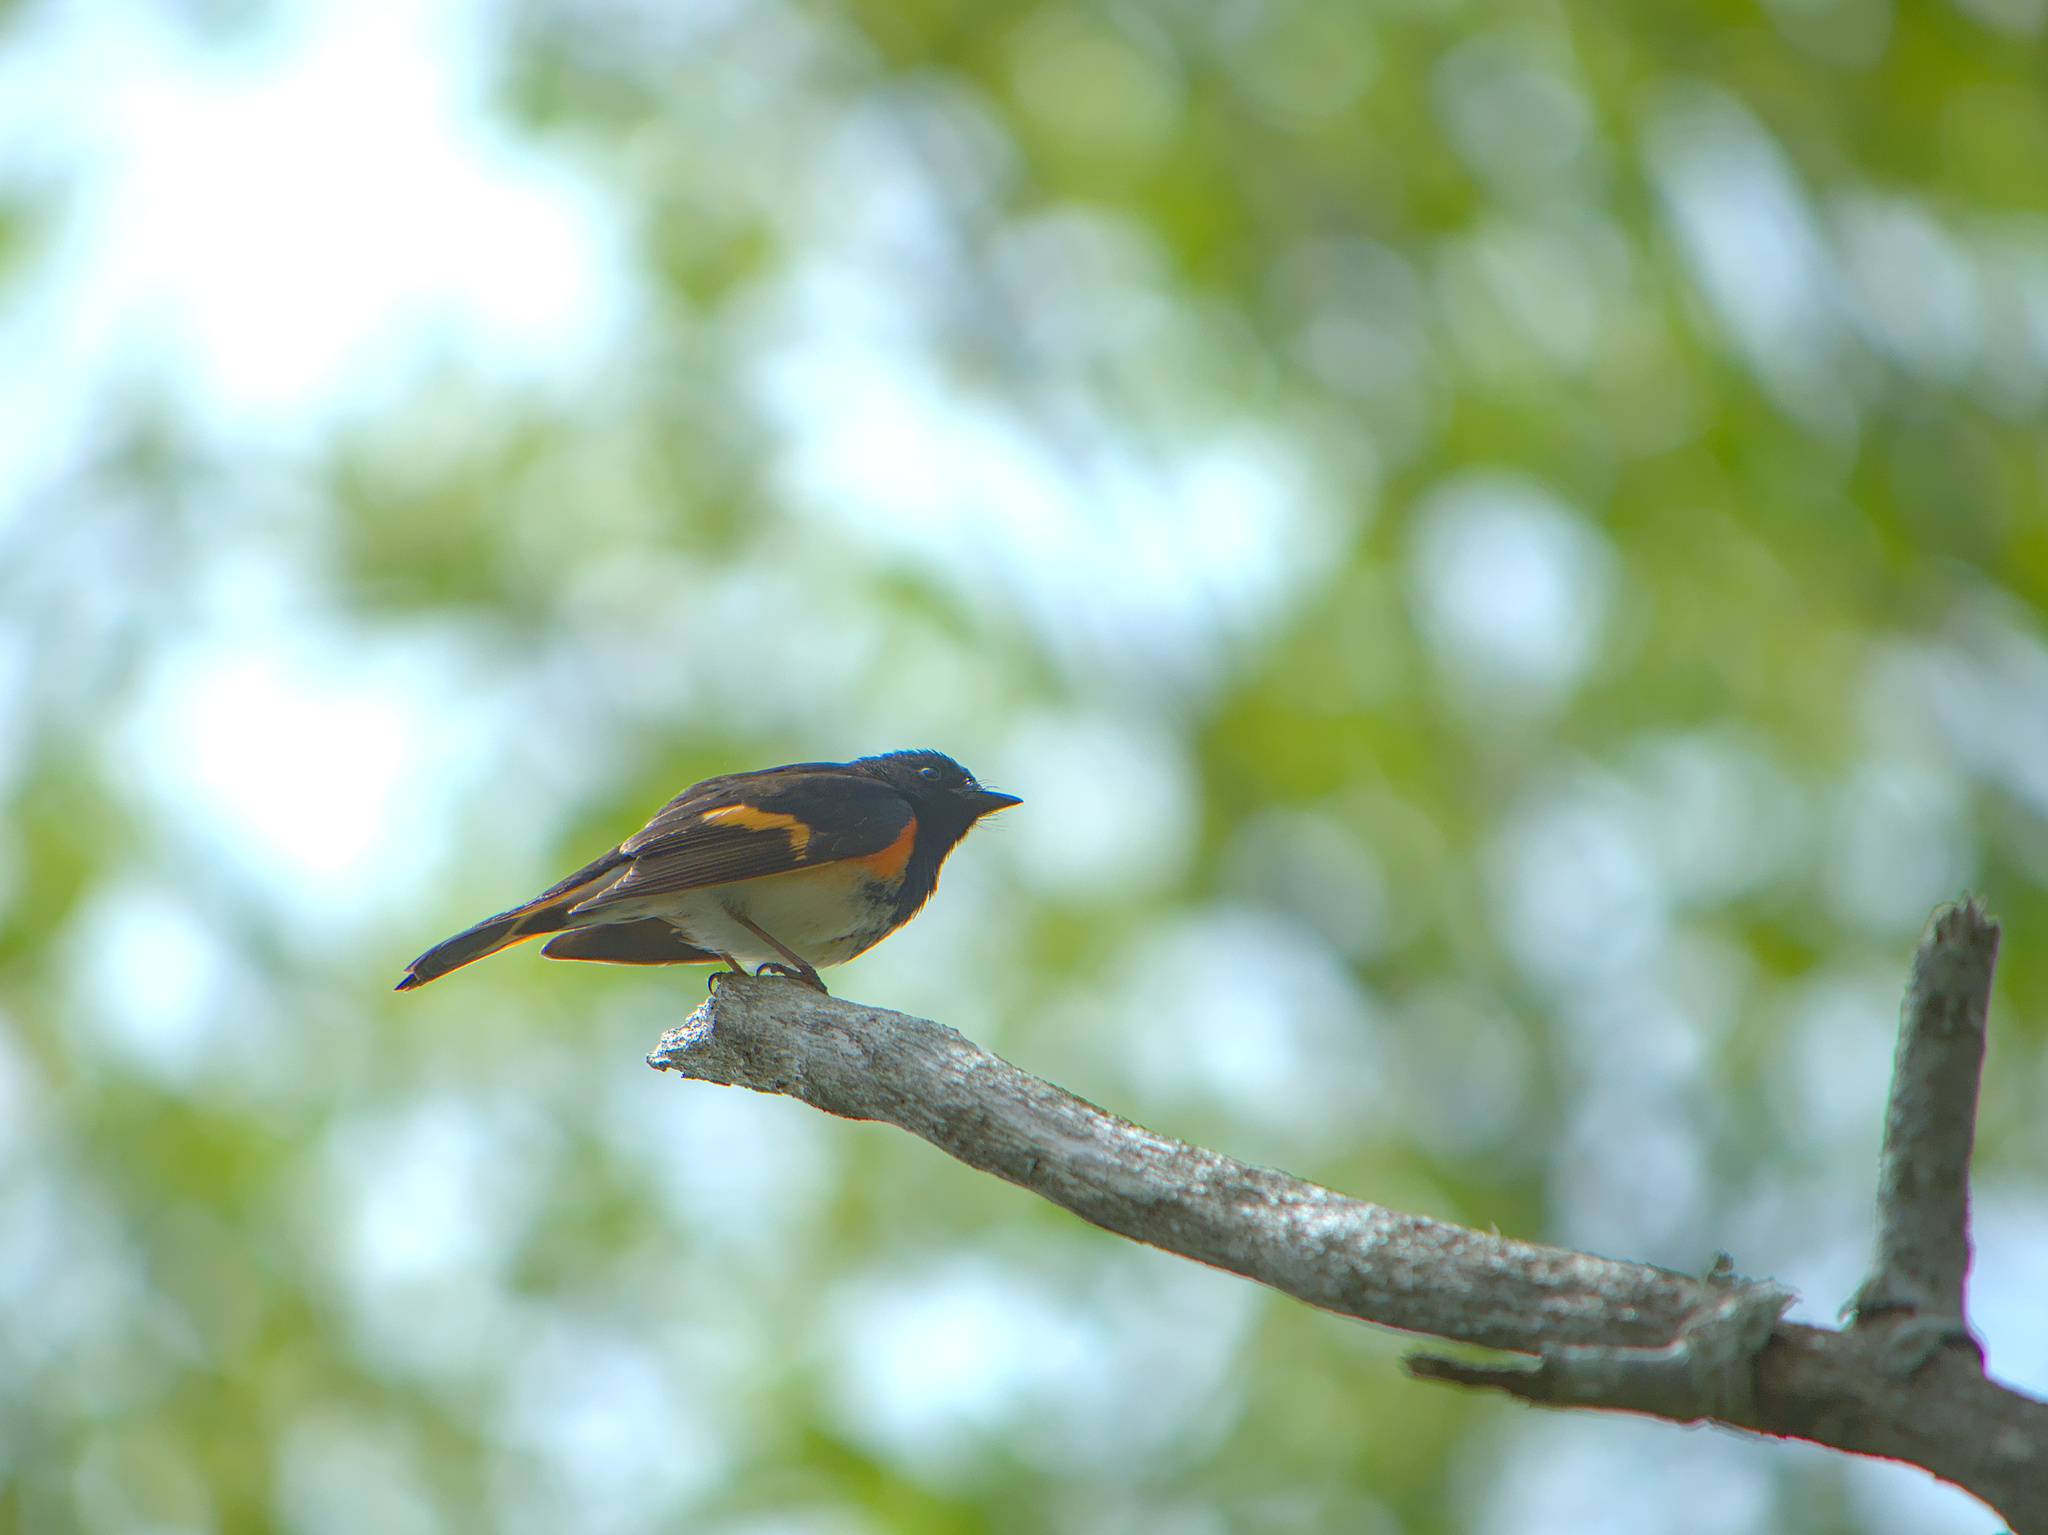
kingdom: Animalia
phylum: Chordata
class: Aves
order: Passeriformes
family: Parulidae
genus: Setophaga
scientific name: Setophaga ruticilla
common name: American redstart
